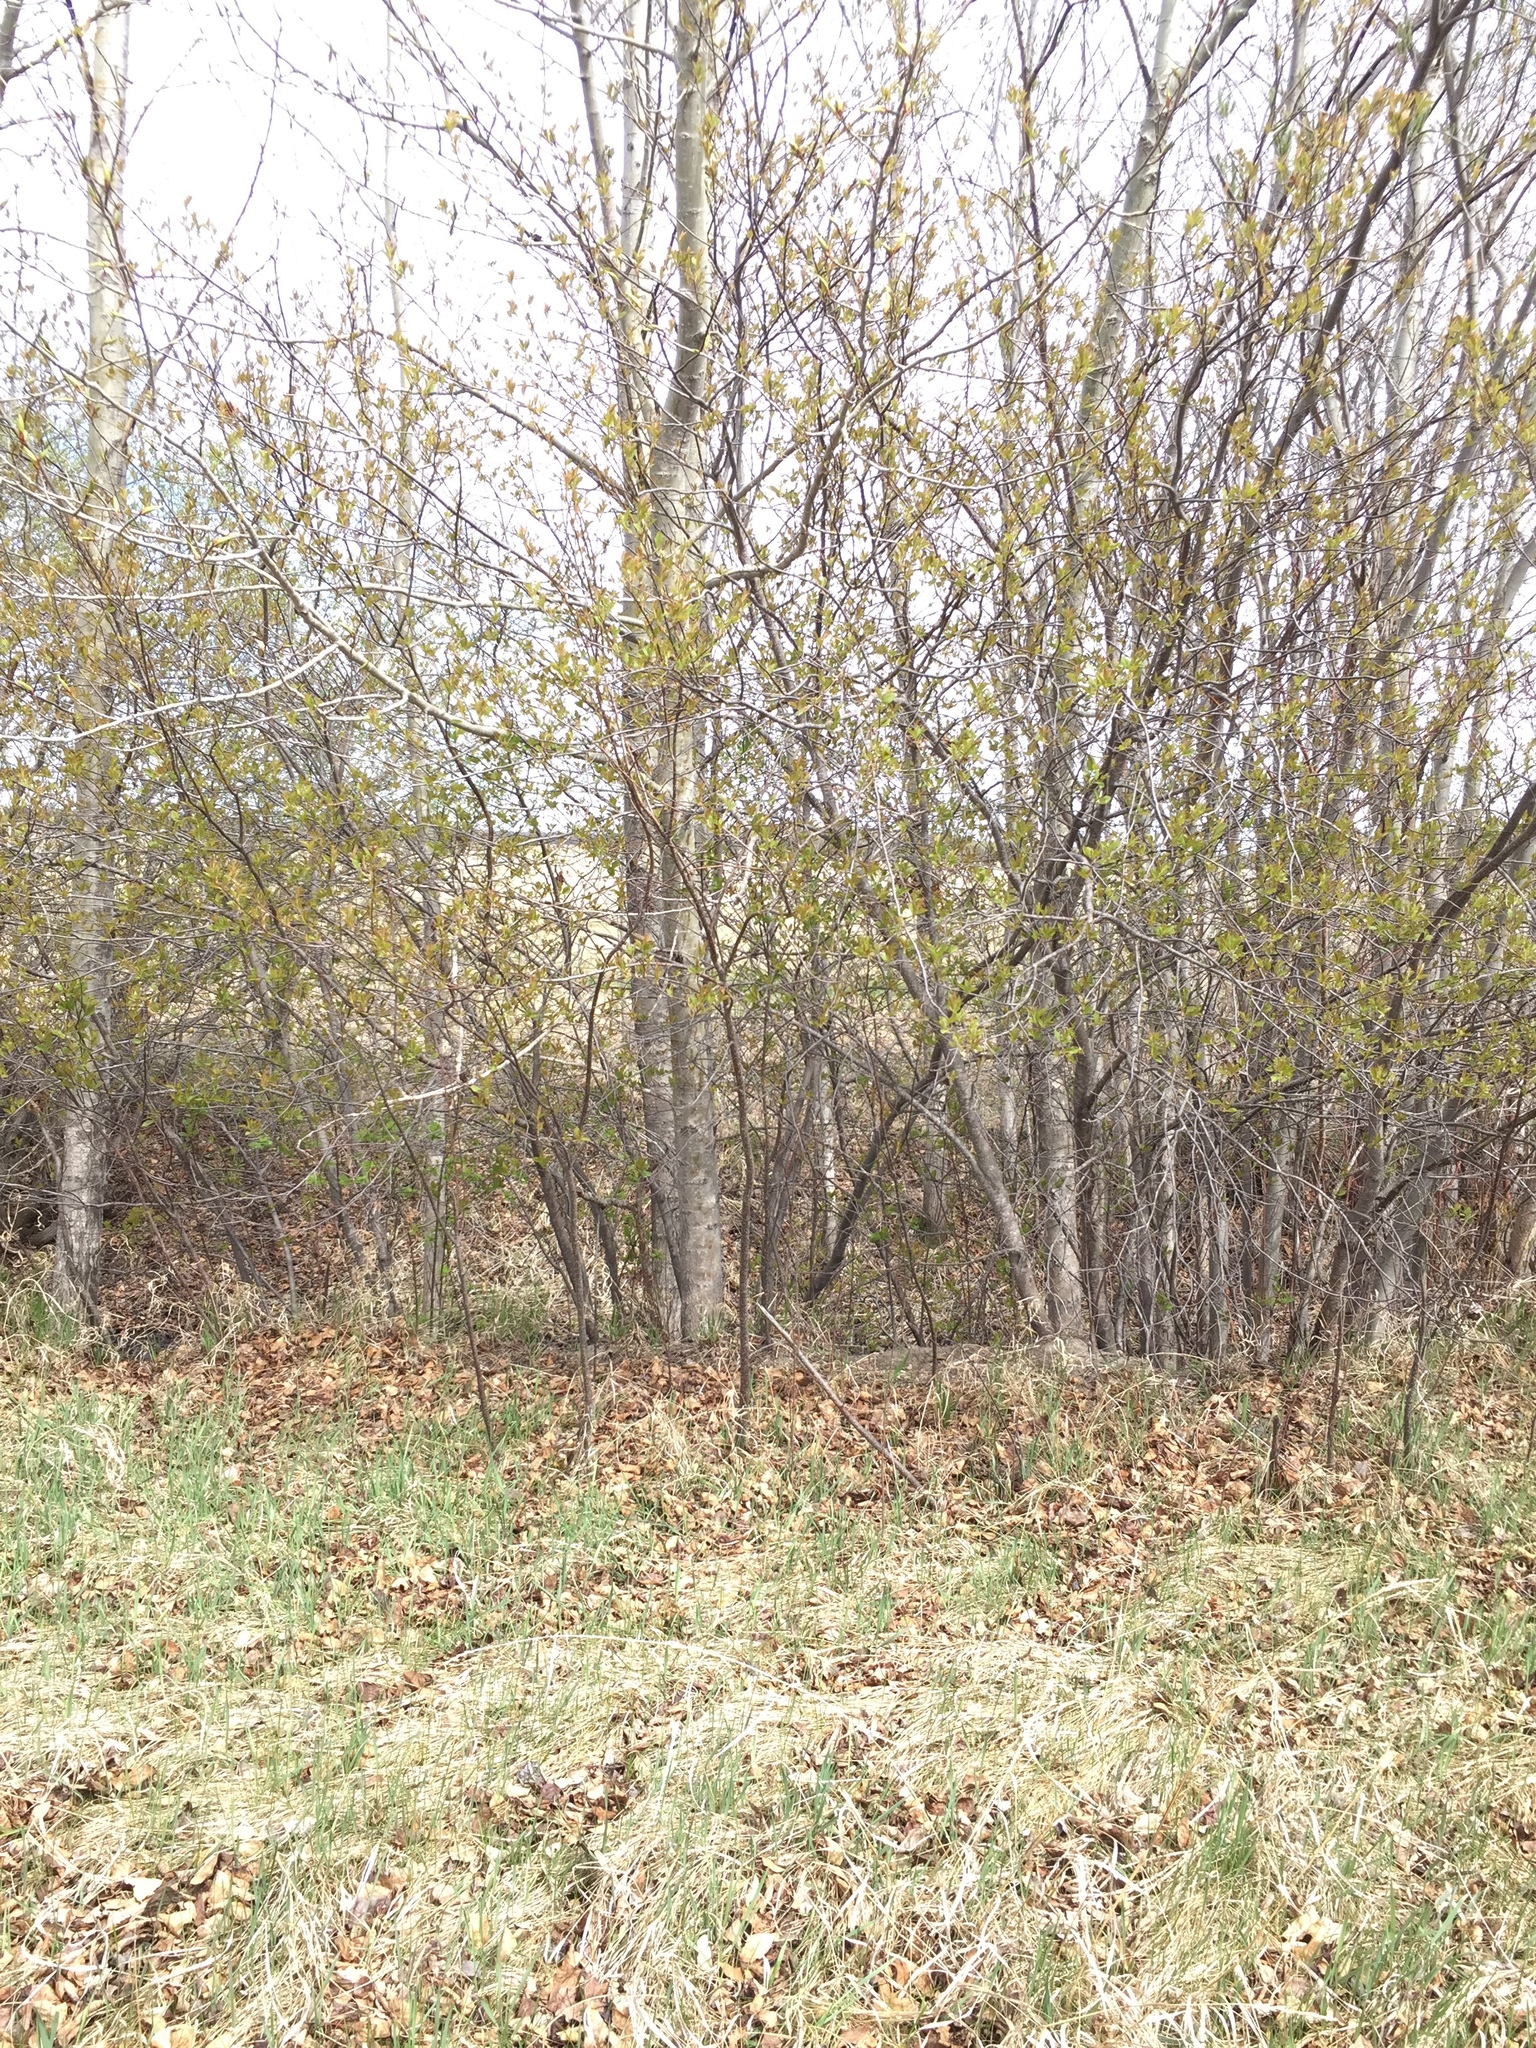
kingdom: Plantae
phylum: Tracheophyta
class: Magnoliopsida
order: Rosales
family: Rosaceae
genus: Prunus
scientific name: Prunus virginiana
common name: Chokecherry
